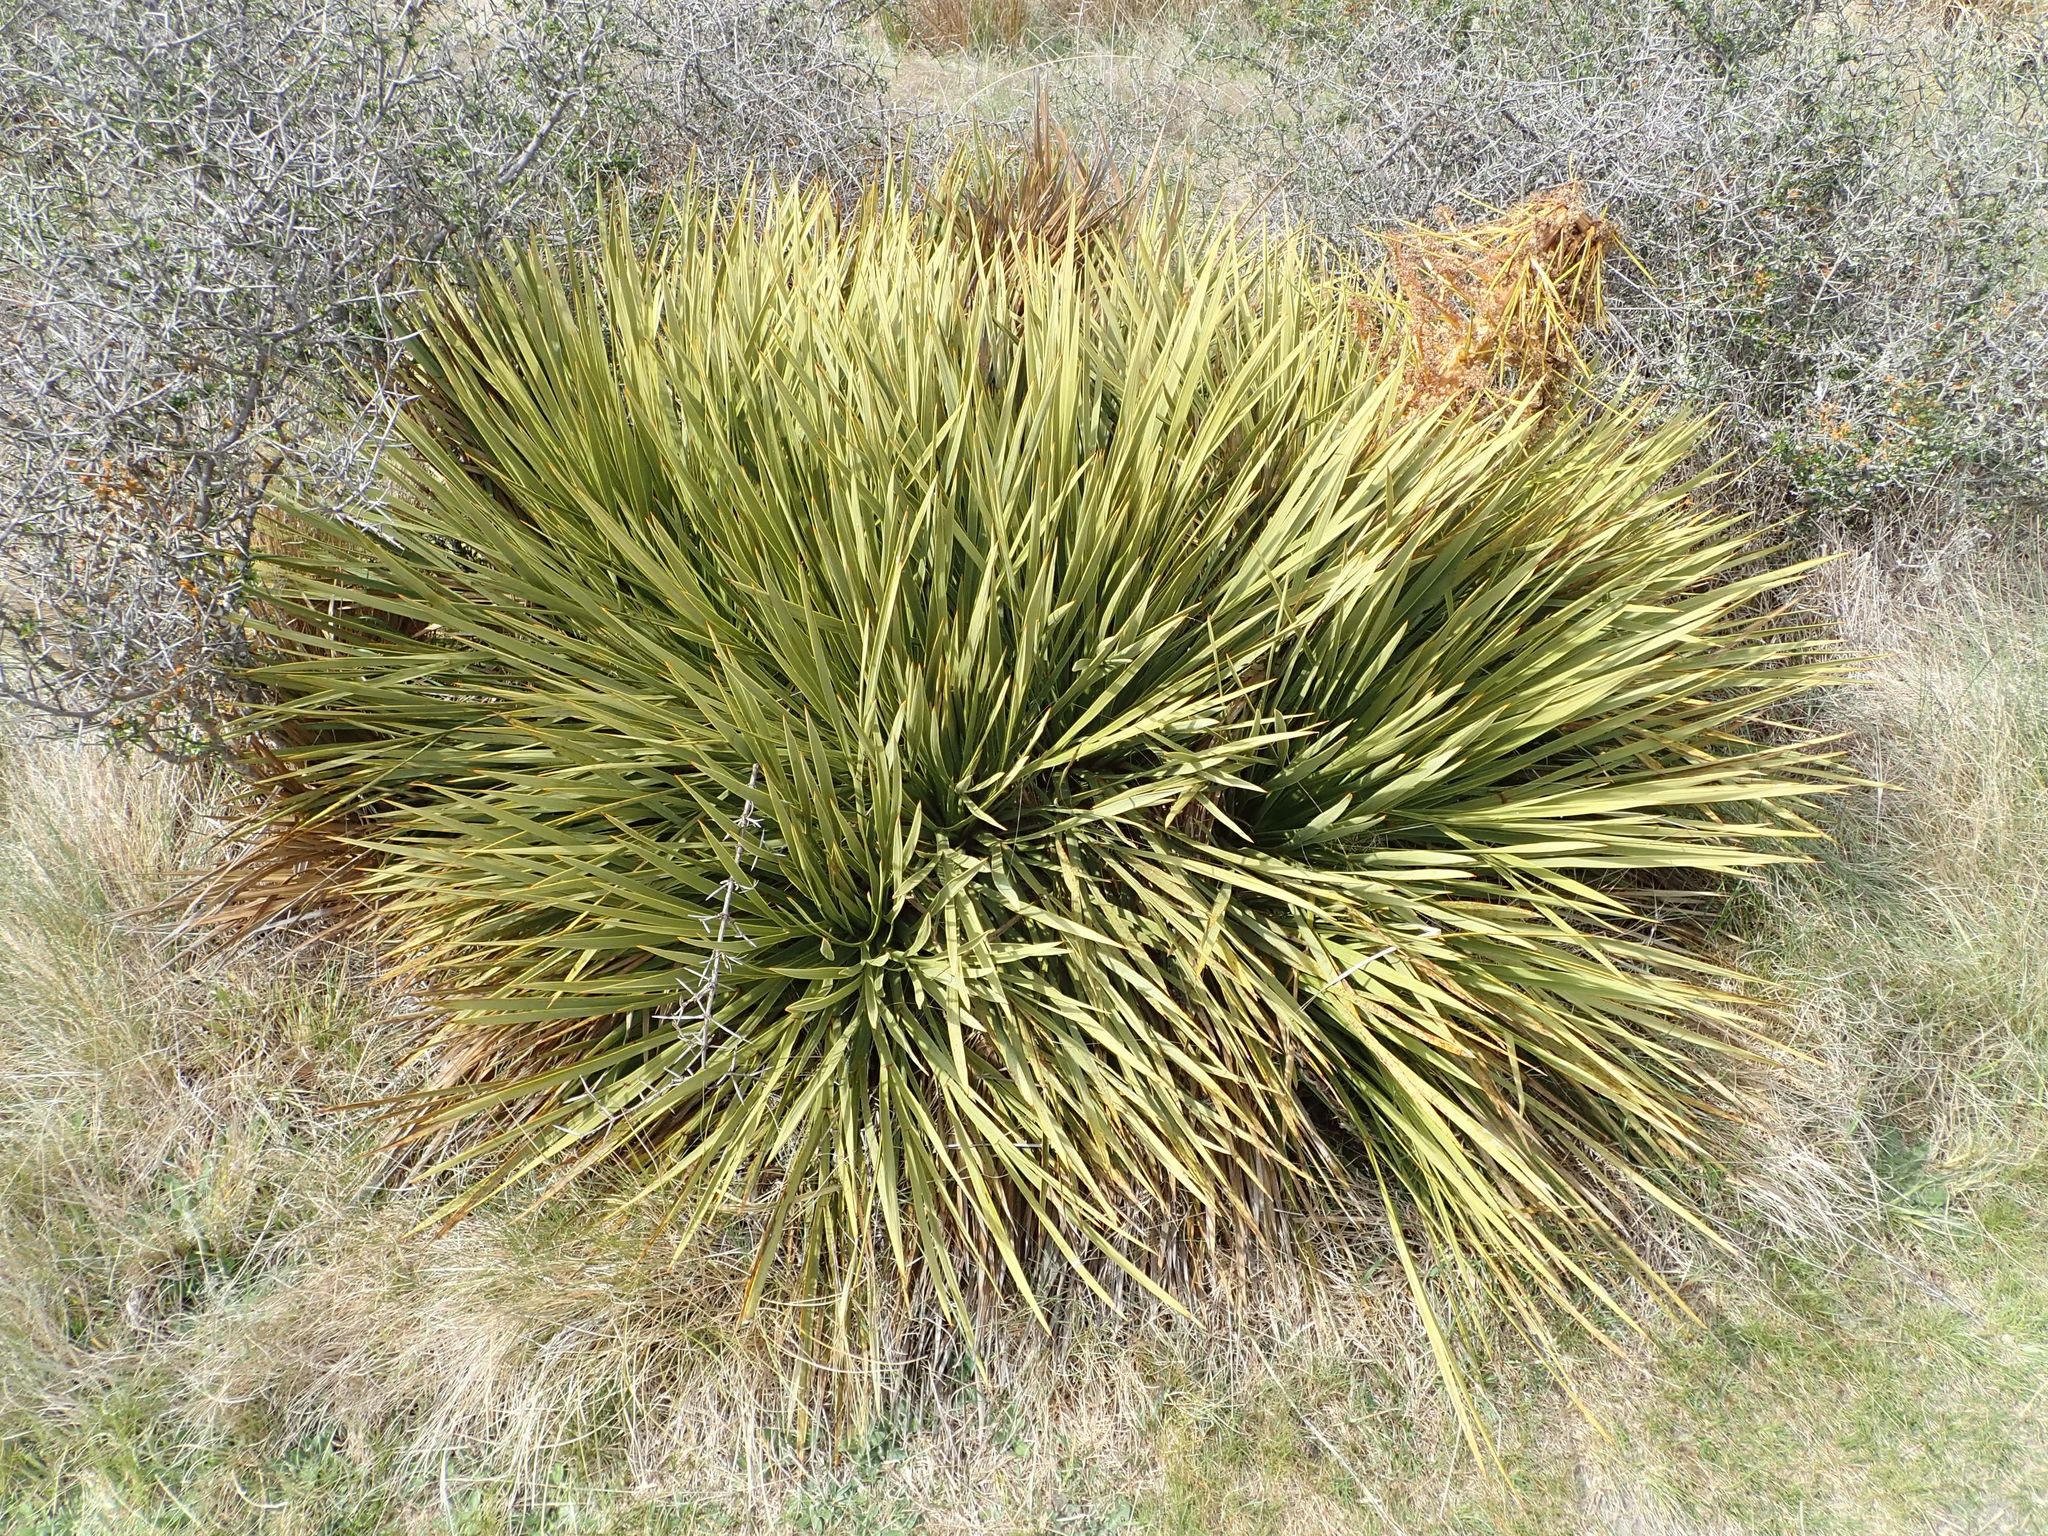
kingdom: Plantae
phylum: Tracheophyta
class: Magnoliopsida
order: Apiales
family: Apiaceae
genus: Aciphylla
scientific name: Aciphylla aurea
